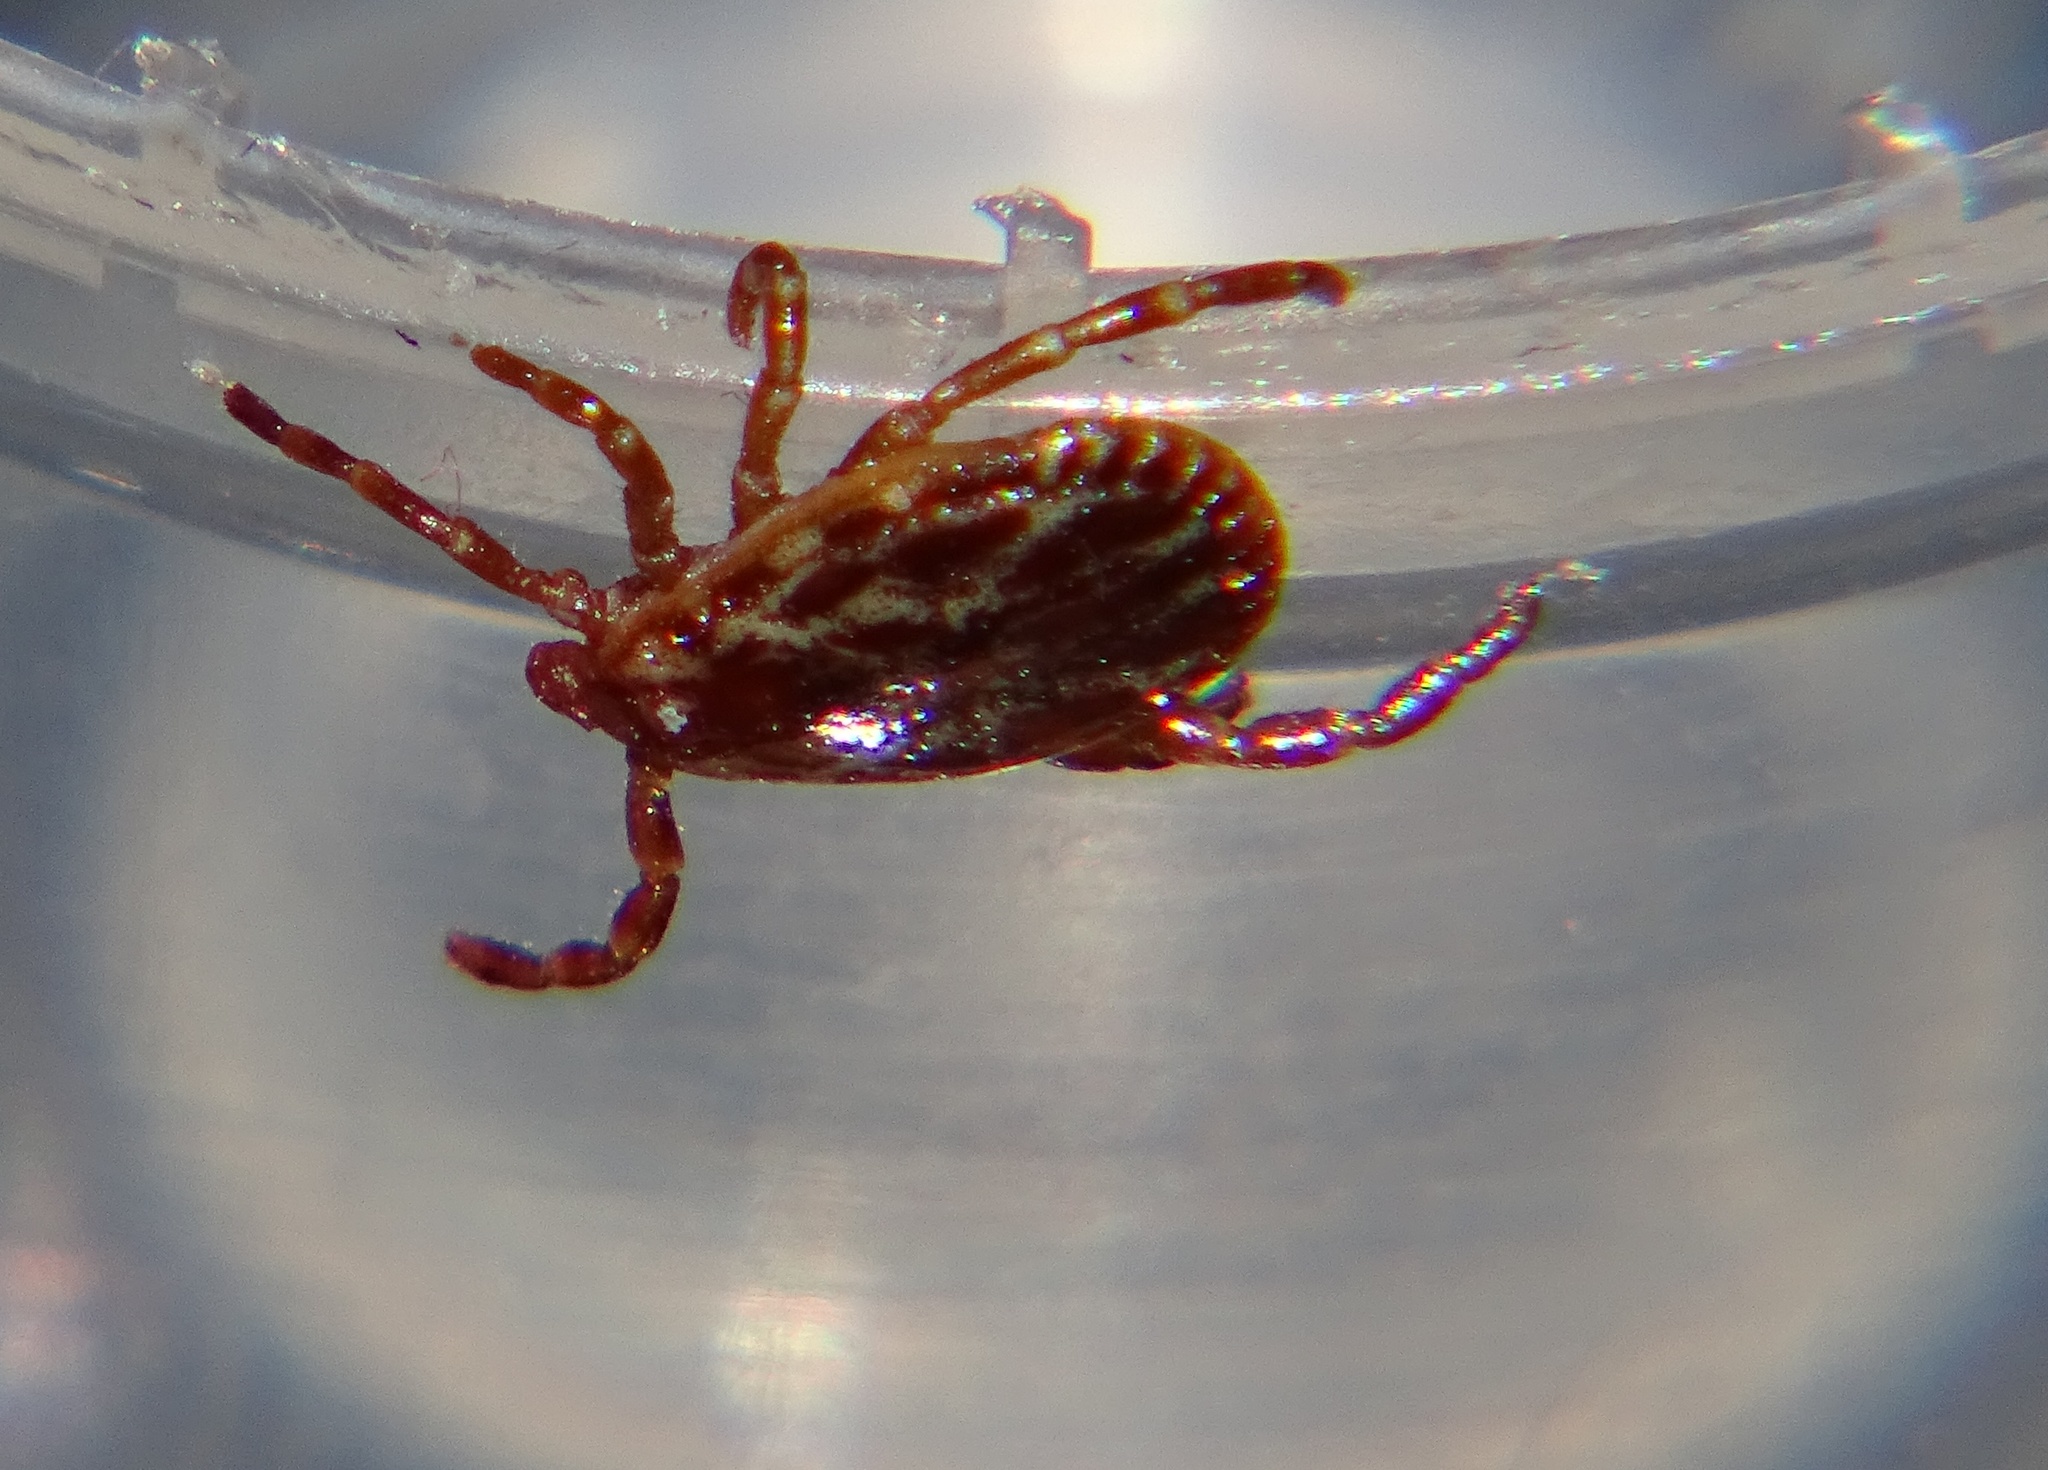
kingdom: Animalia
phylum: Arthropoda
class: Arachnida
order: Ixodida
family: Ixodidae
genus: Dermacentor
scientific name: Dermacentor variabilis
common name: American dog tick
